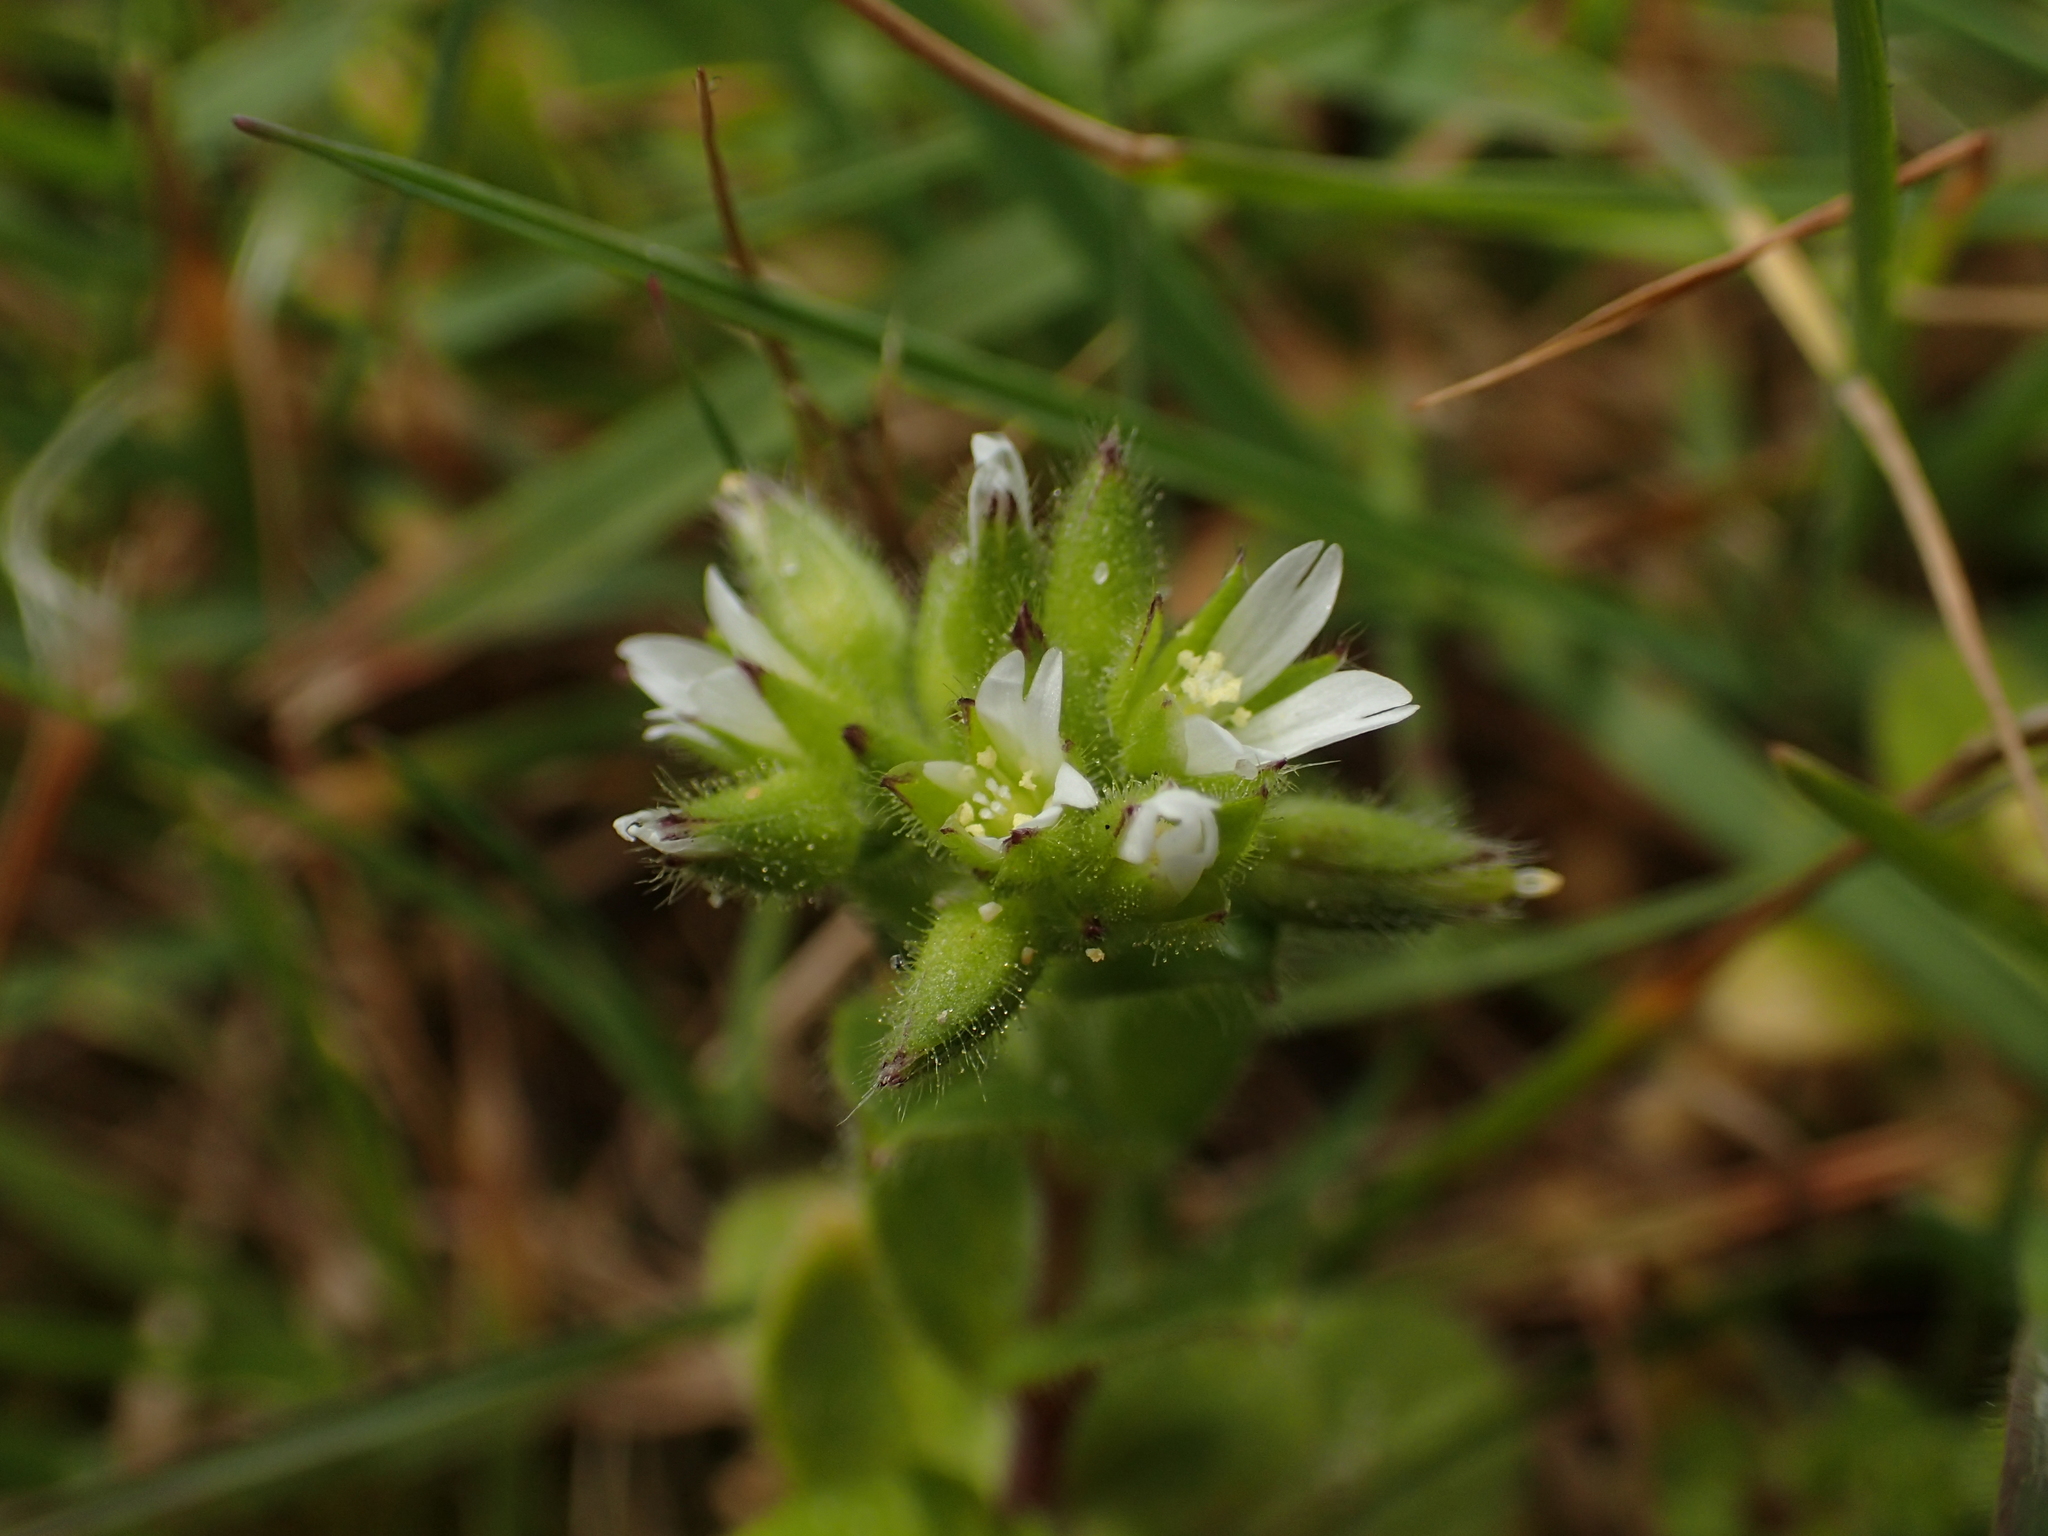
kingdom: Plantae
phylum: Tracheophyta
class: Magnoliopsida
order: Caryophyllales
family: Caryophyllaceae
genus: Cerastium
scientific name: Cerastium glomeratum
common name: Sticky chickweed
